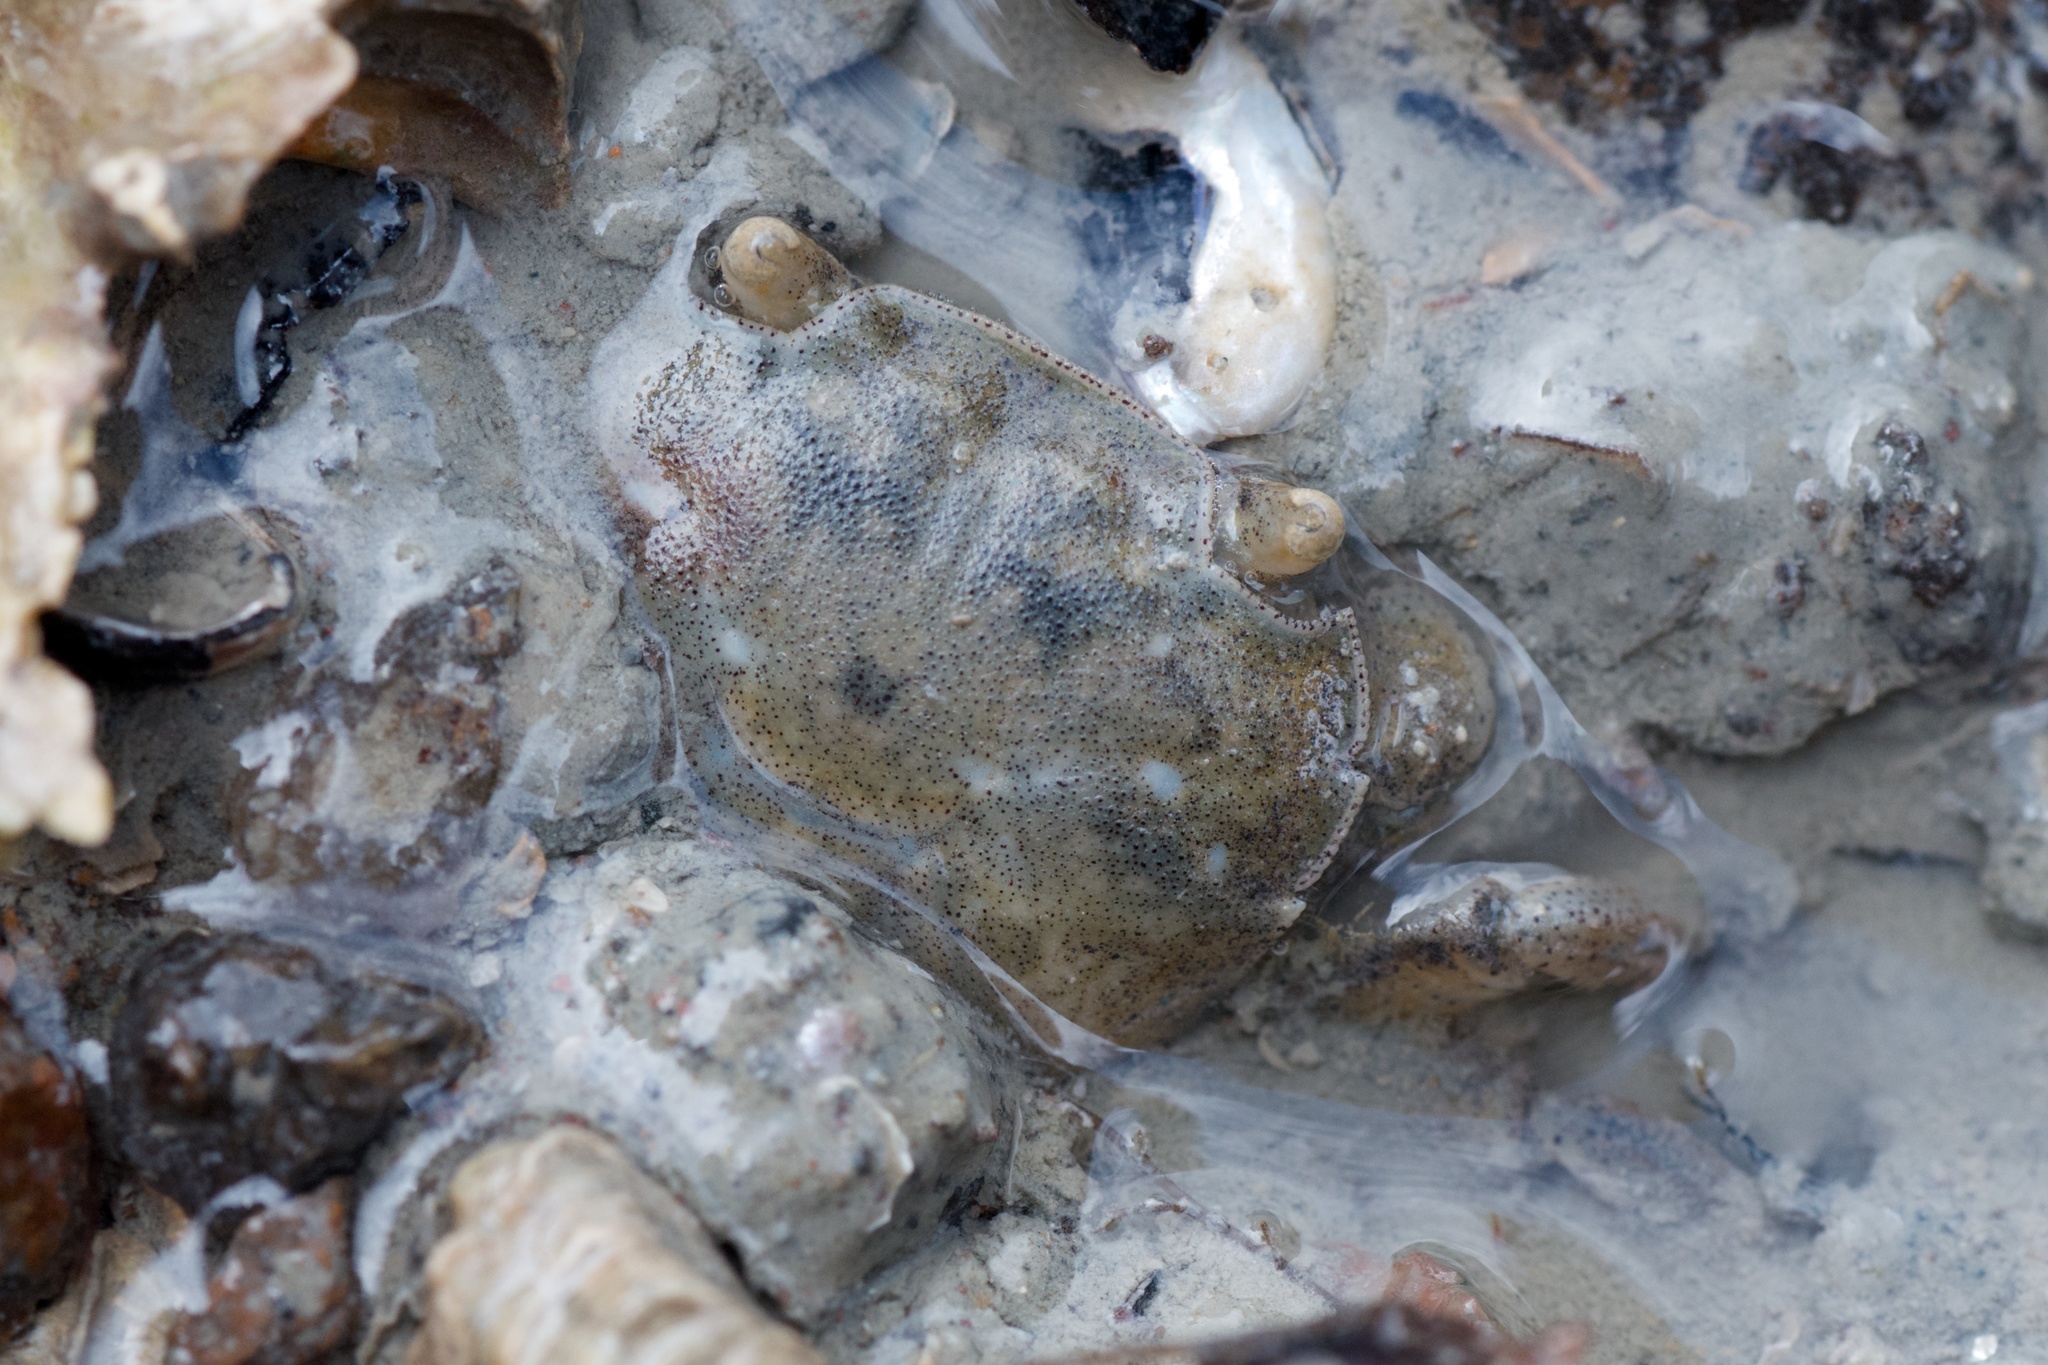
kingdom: Animalia
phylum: Arthropoda
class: Malacostraca
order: Decapoda
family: Varunidae
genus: Hemigrapsus
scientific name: Hemigrapsus crenulatus
